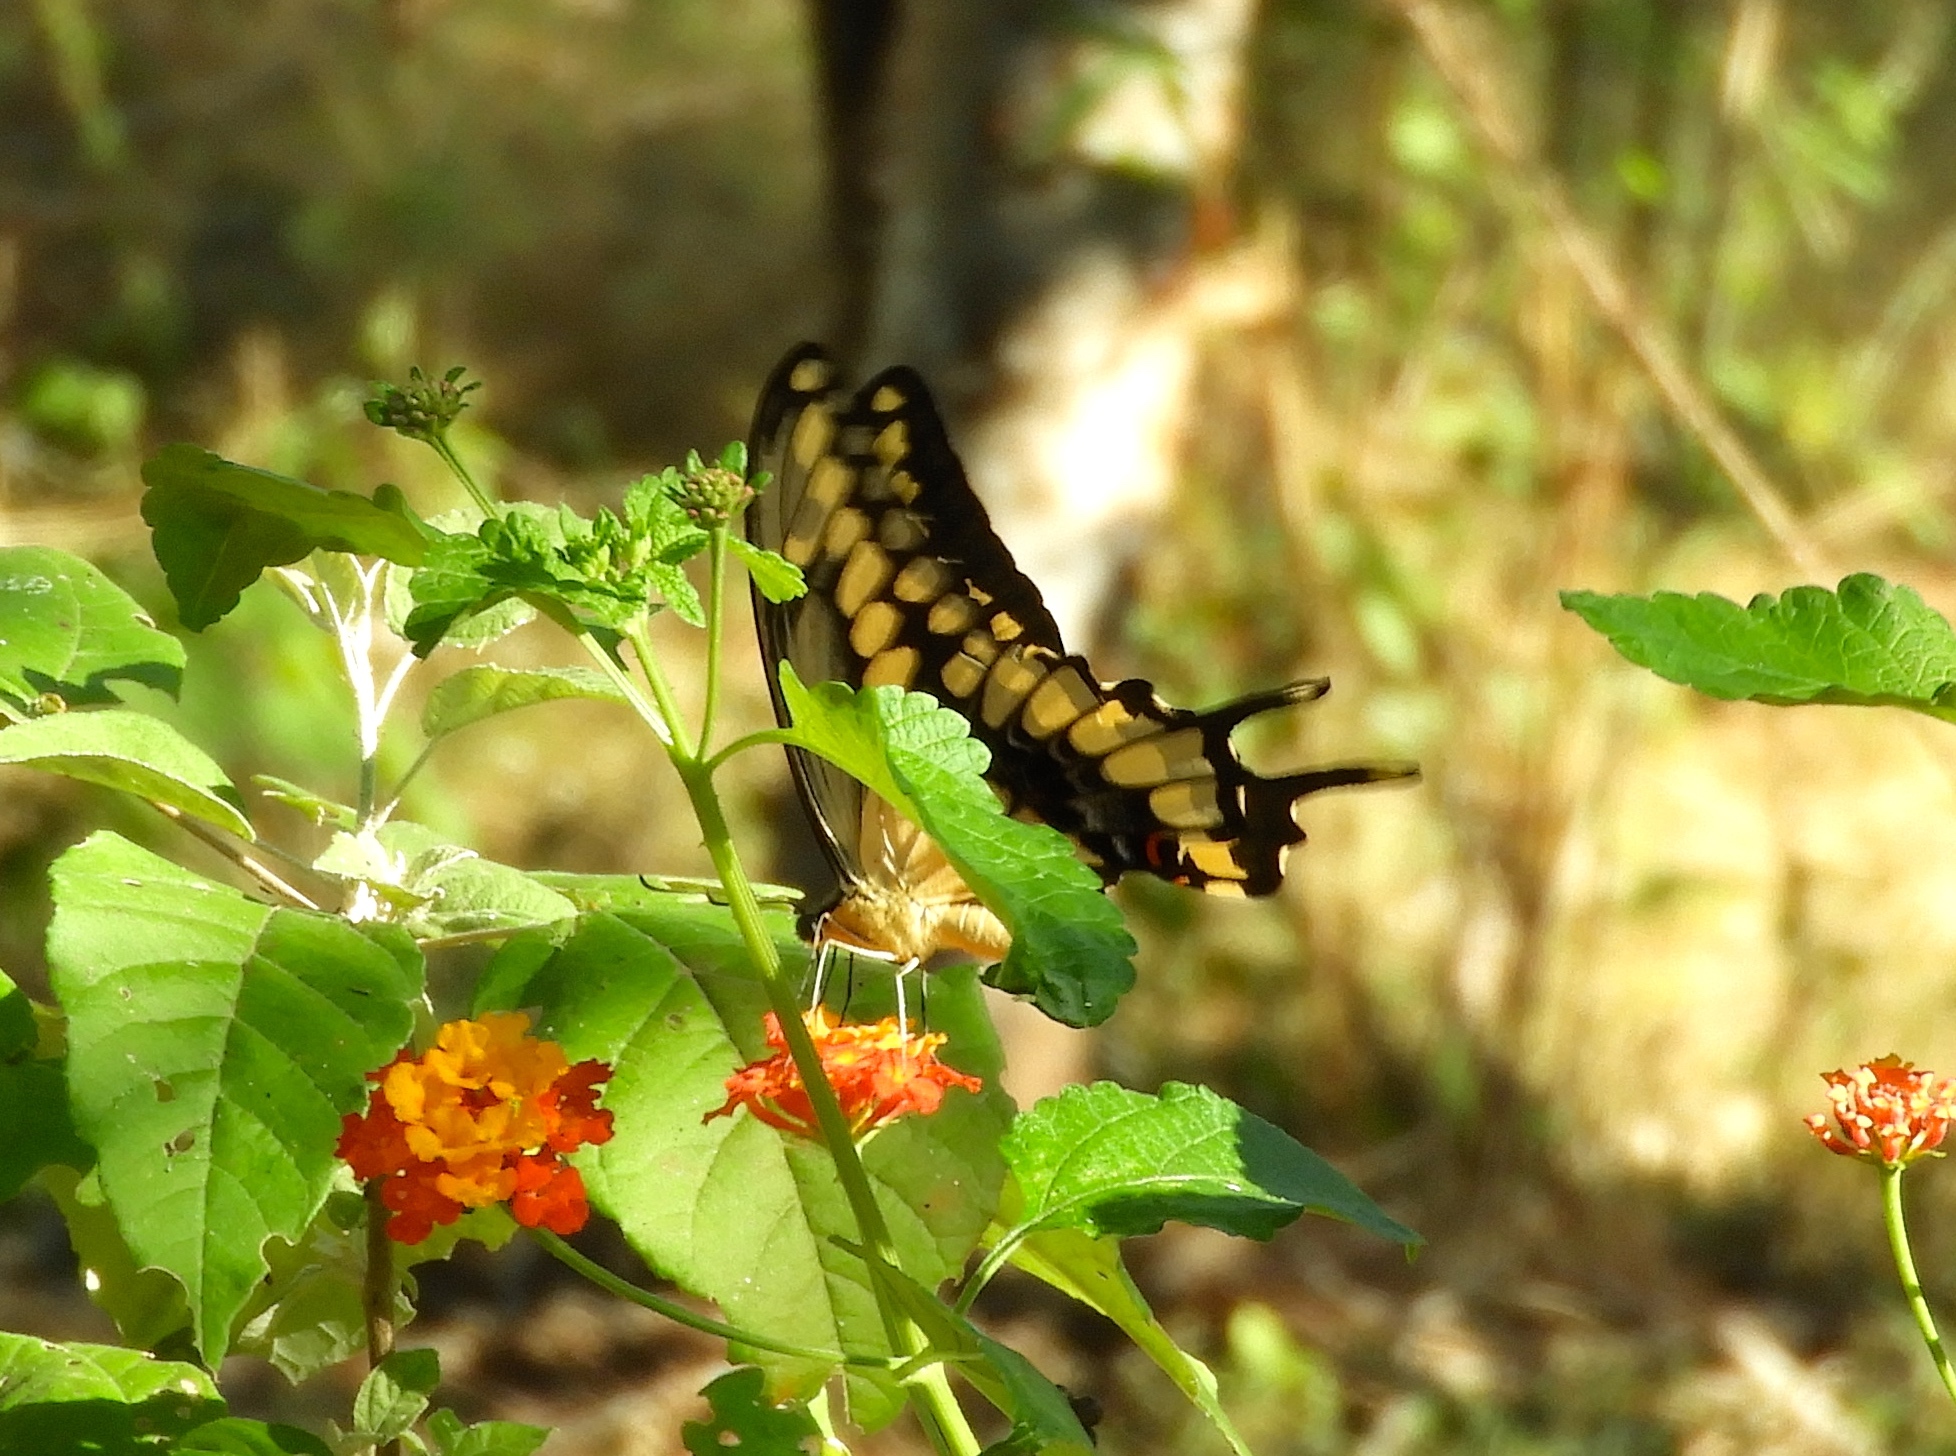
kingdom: Animalia
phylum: Arthropoda
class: Insecta
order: Lepidoptera
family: Papilionidae
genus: Papilio
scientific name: Papilio rumiko
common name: Western giant swallowtail
